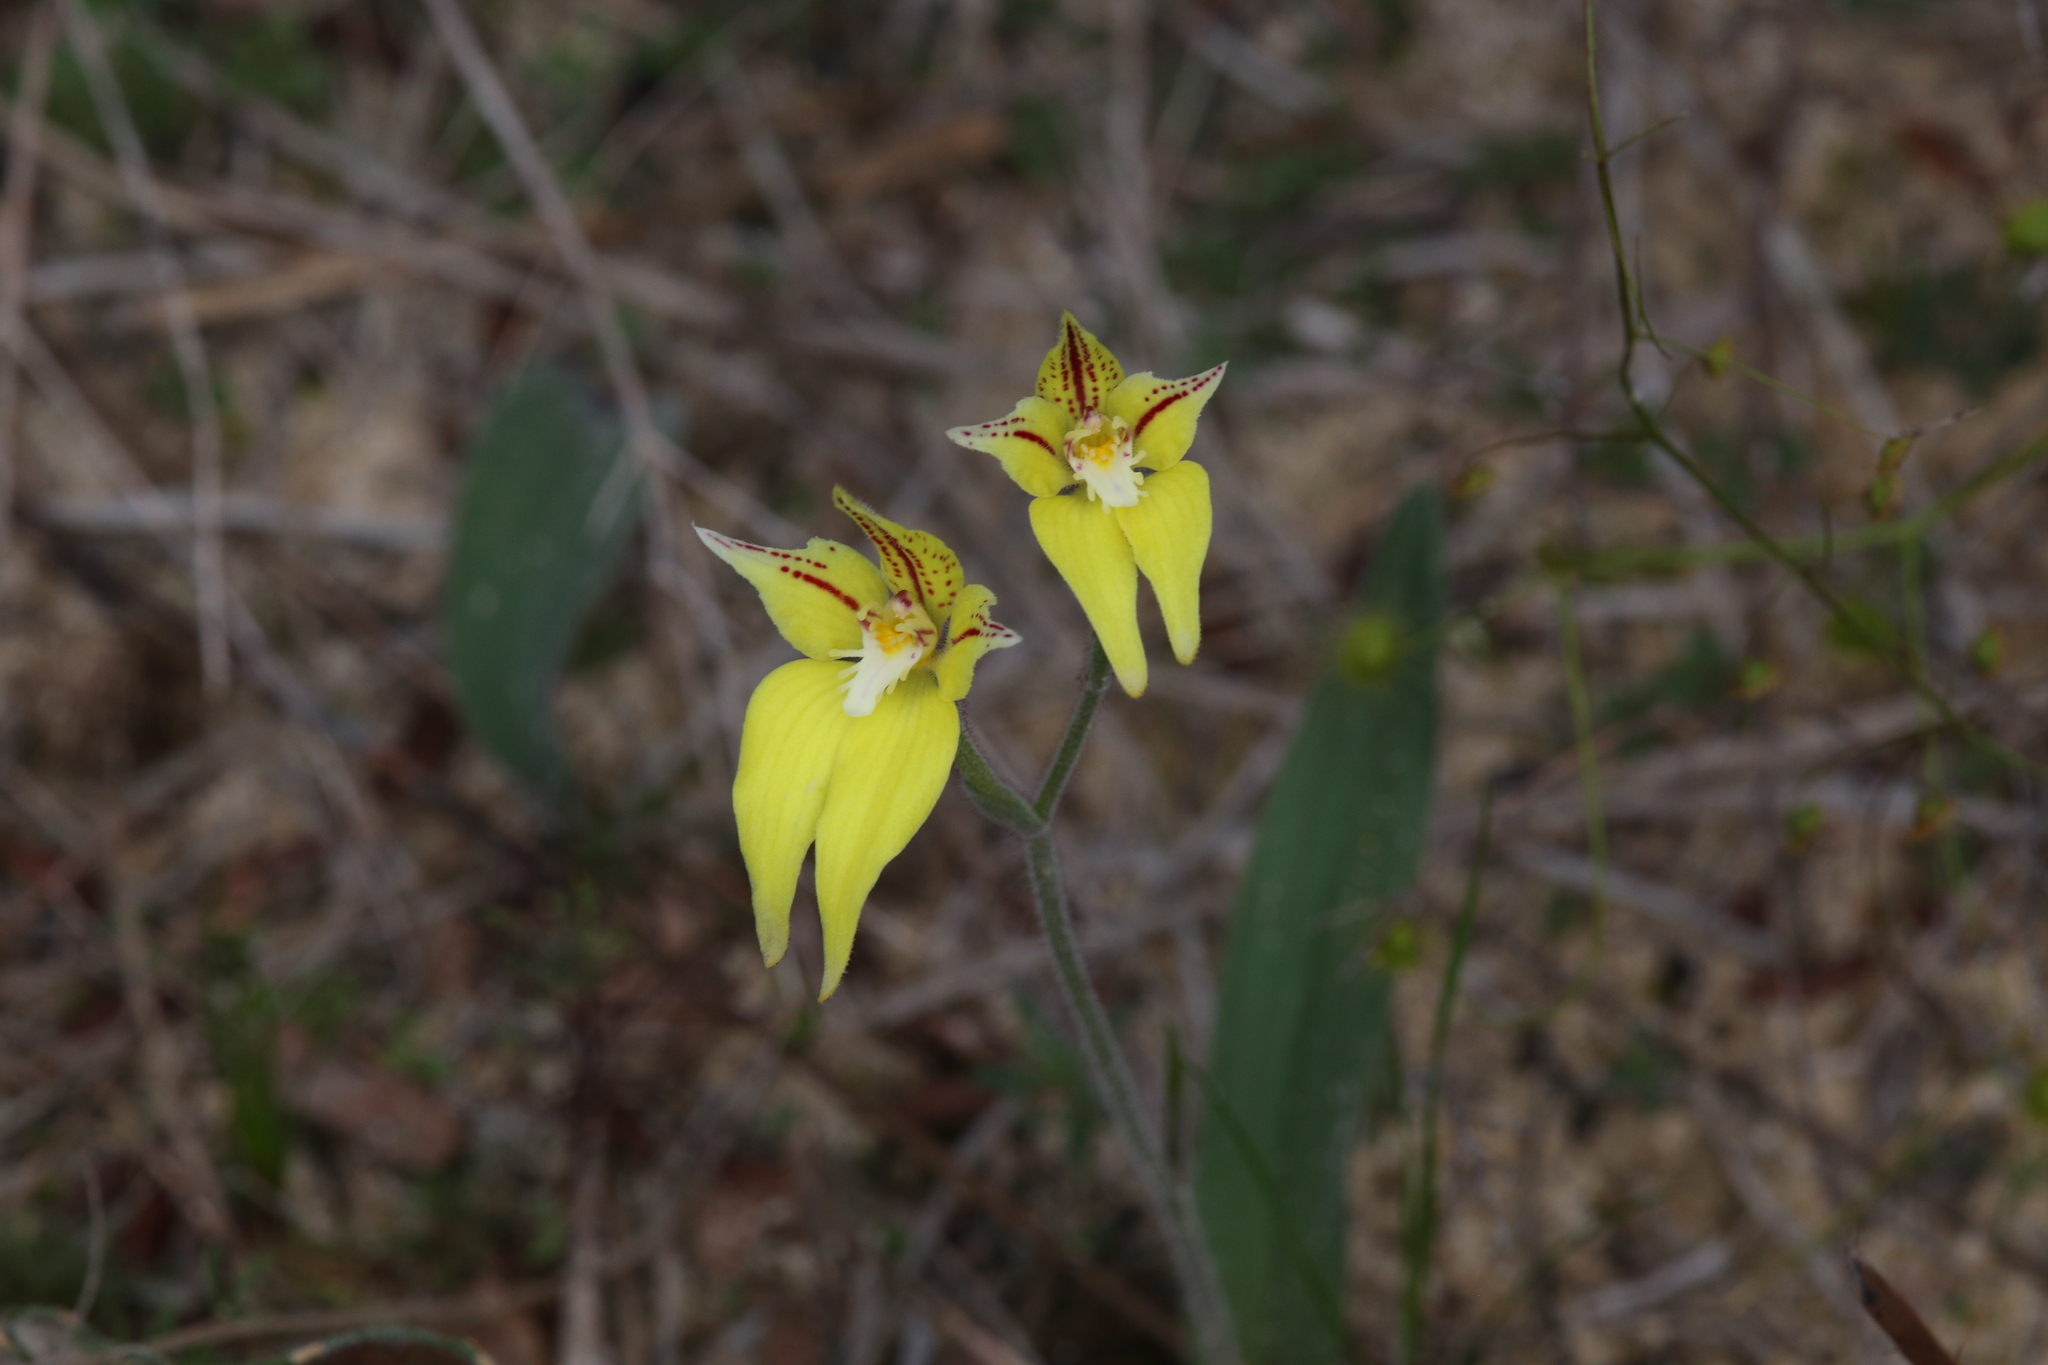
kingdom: Plantae
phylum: Tracheophyta
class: Liliopsida
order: Asparagales
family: Orchidaceae
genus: Caladenia
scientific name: Caladenia flava
